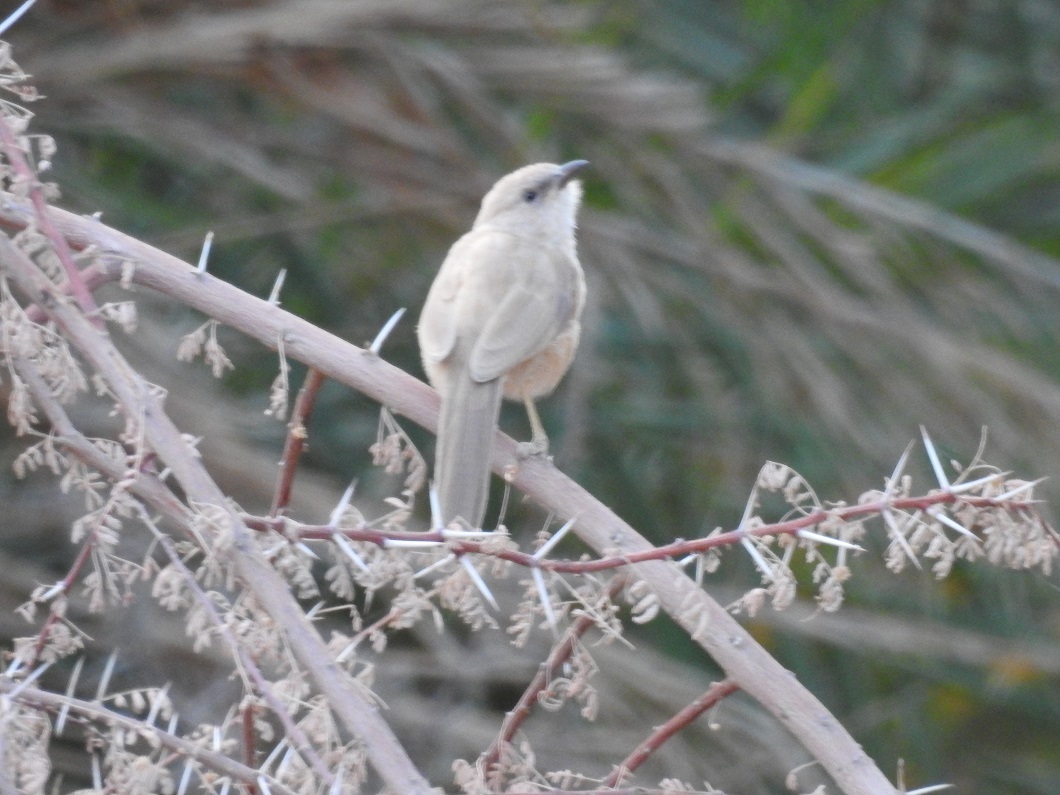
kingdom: Animalia
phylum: Chordata
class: Aves
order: Passeriformes
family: Leiothrichidae
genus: Turdoides
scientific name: Turdoides fulva
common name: Fulvous babbler
